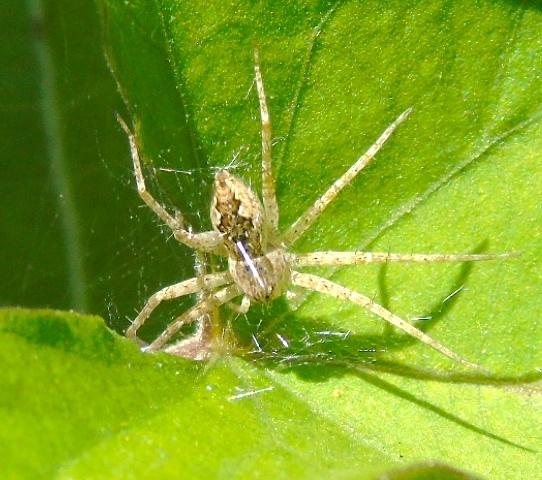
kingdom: Animalia
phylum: Arthropoda
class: Arachnida
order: Araneae
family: Pisauridae
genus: Tinus
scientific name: Tinus
